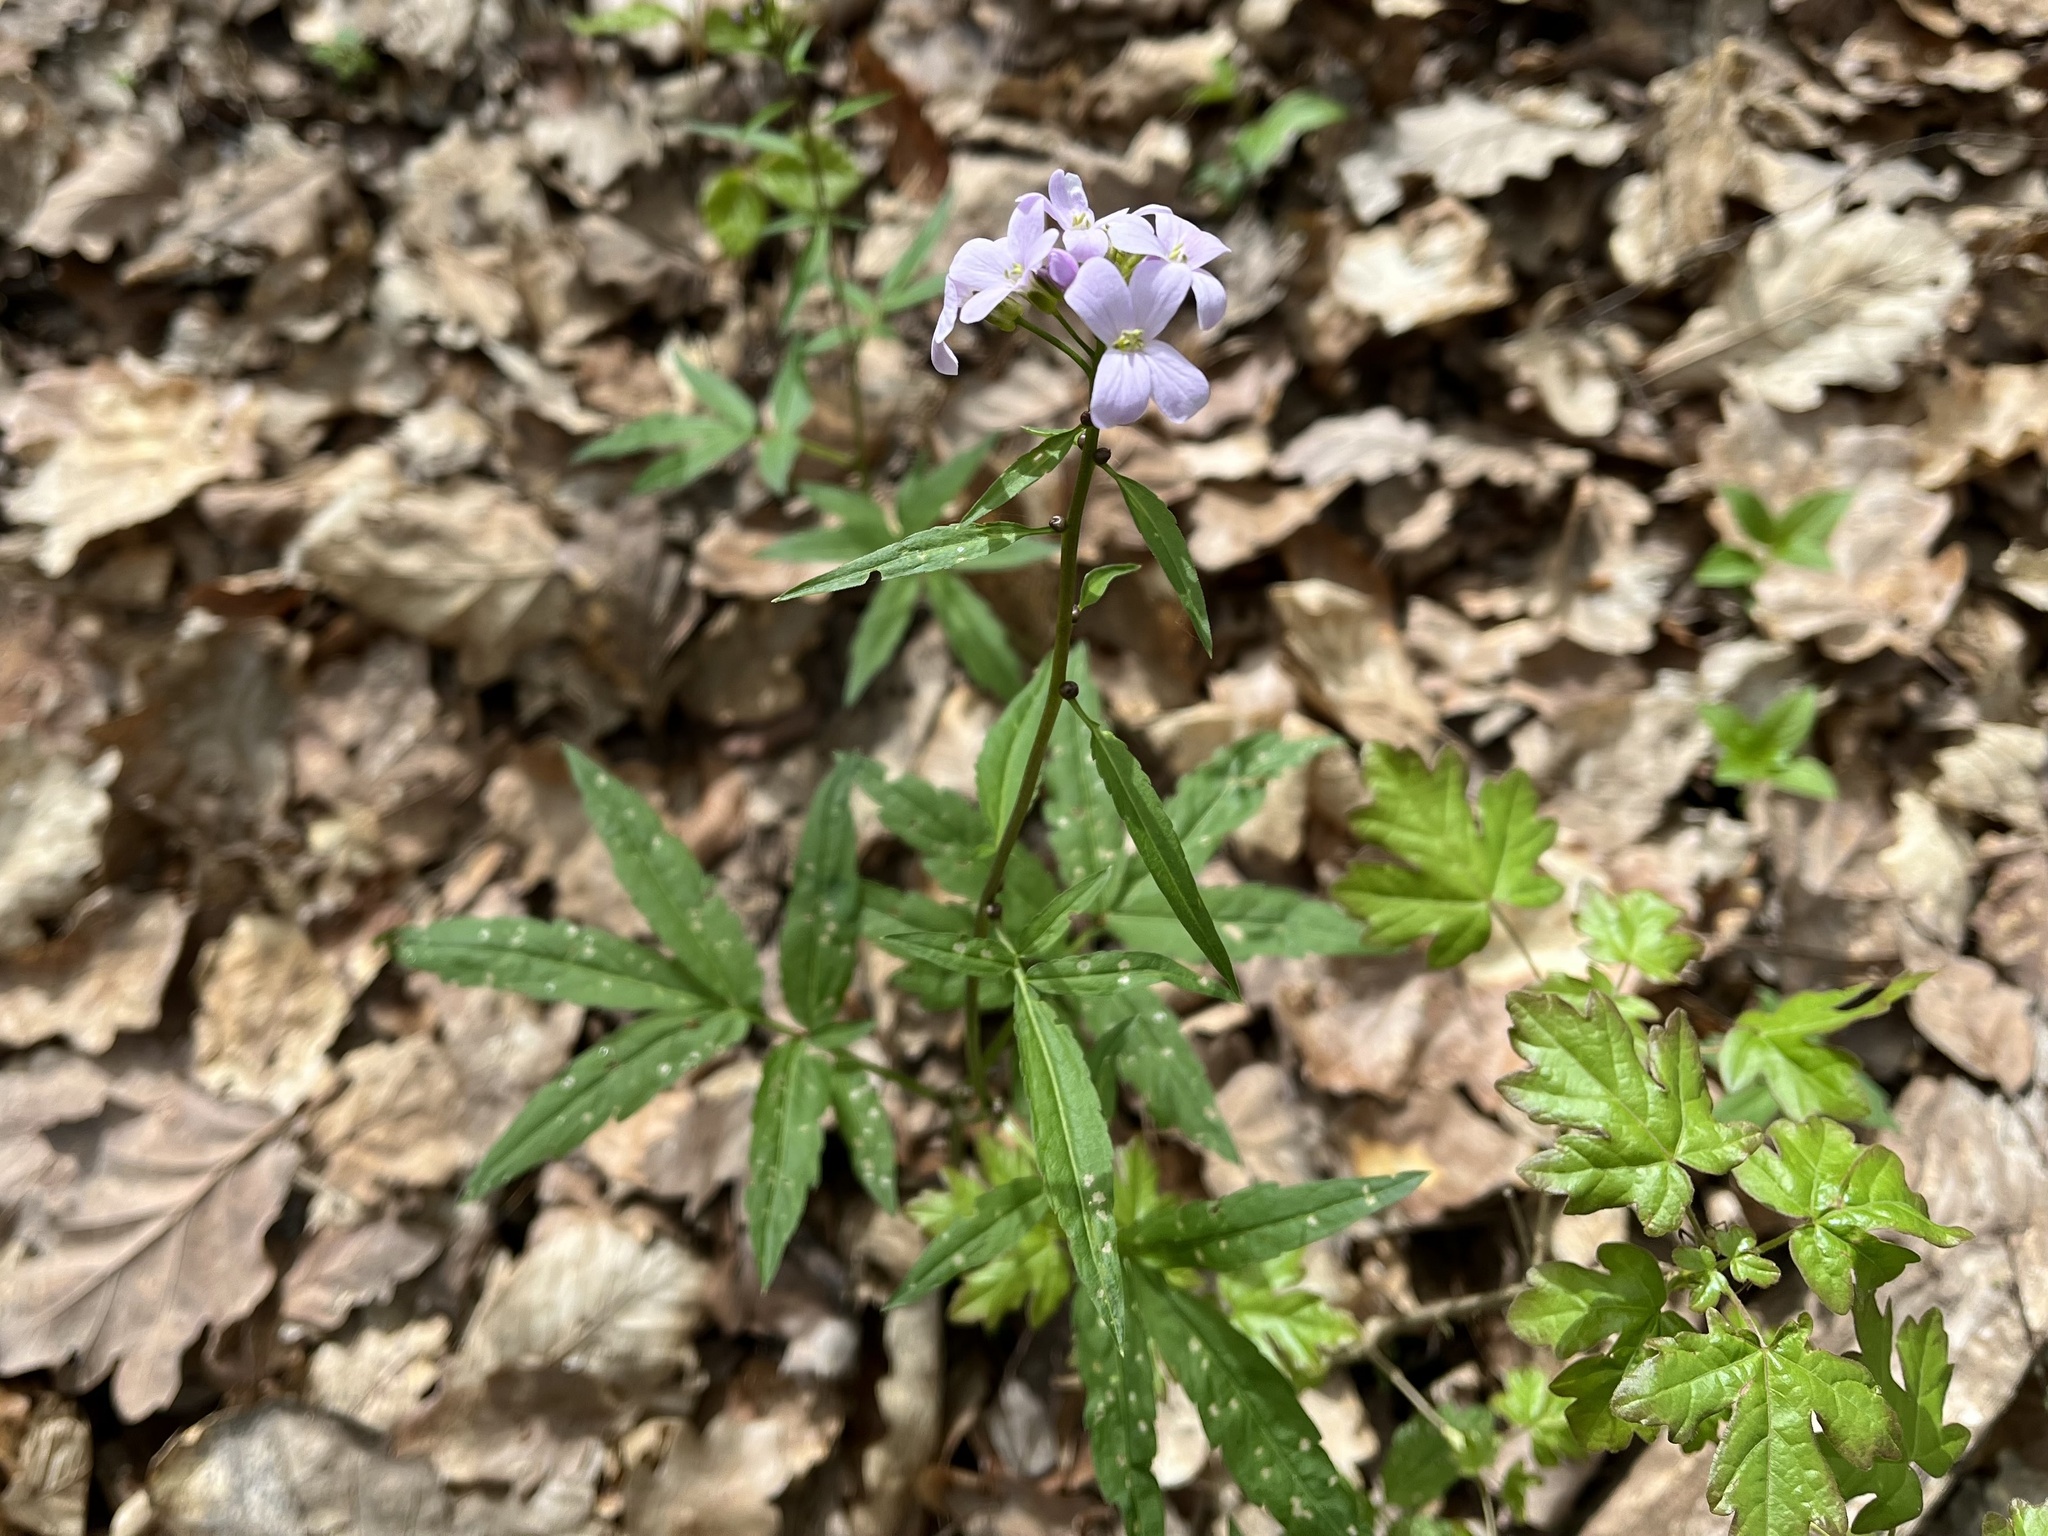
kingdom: Plantae
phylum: Tracheophyta
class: Magnoliopsida
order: Brassicales
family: Brassicaceae
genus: Cardamine
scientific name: Cardamine bulbifera
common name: Coralroot bittercress
